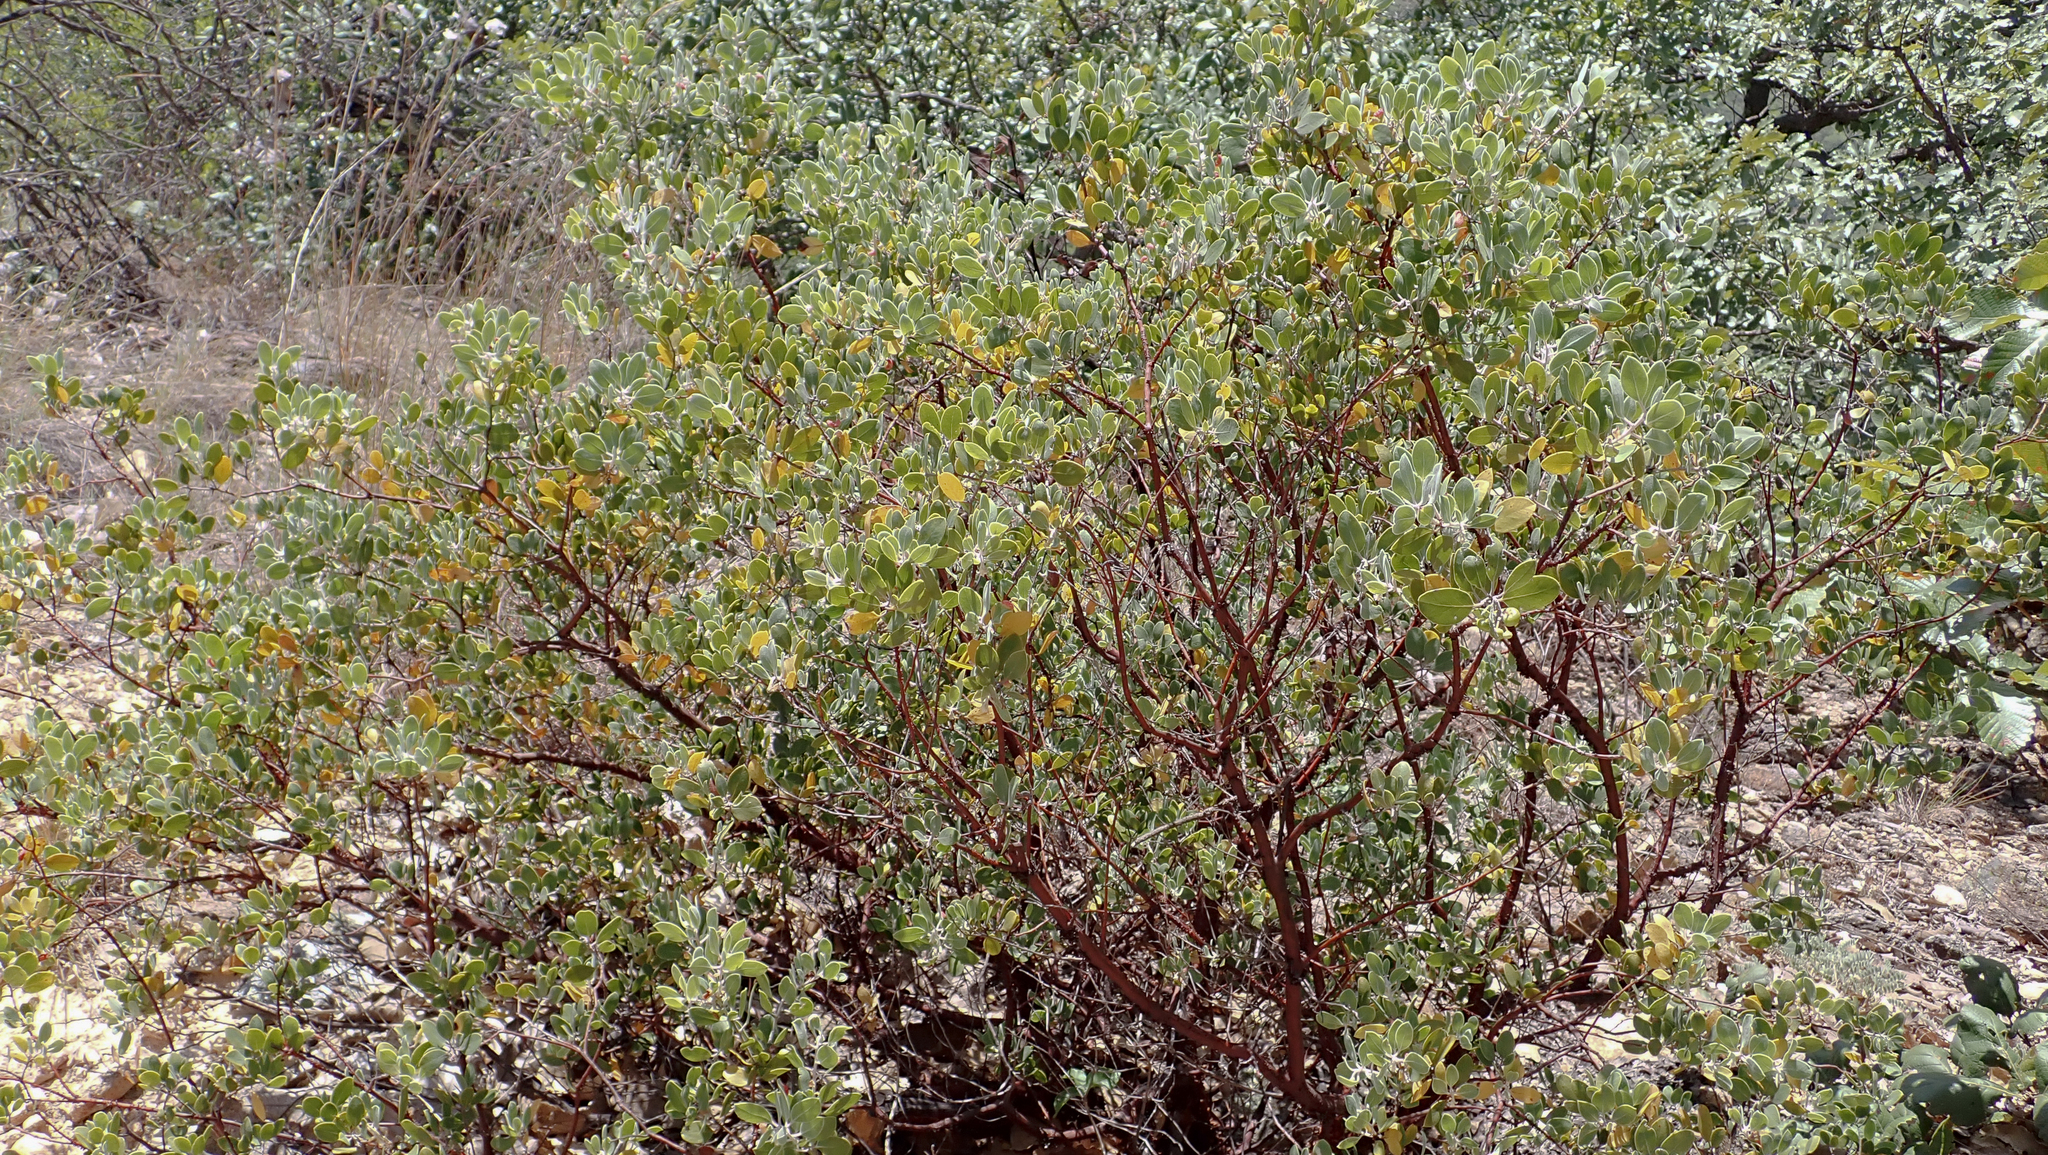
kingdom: Plantae
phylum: Tracheophyta
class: Magnoliopsida
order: Ericales
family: Ericaceae
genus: Arctostaphylos
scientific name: Arctostaphylos pungens
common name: Mexican manzanita
